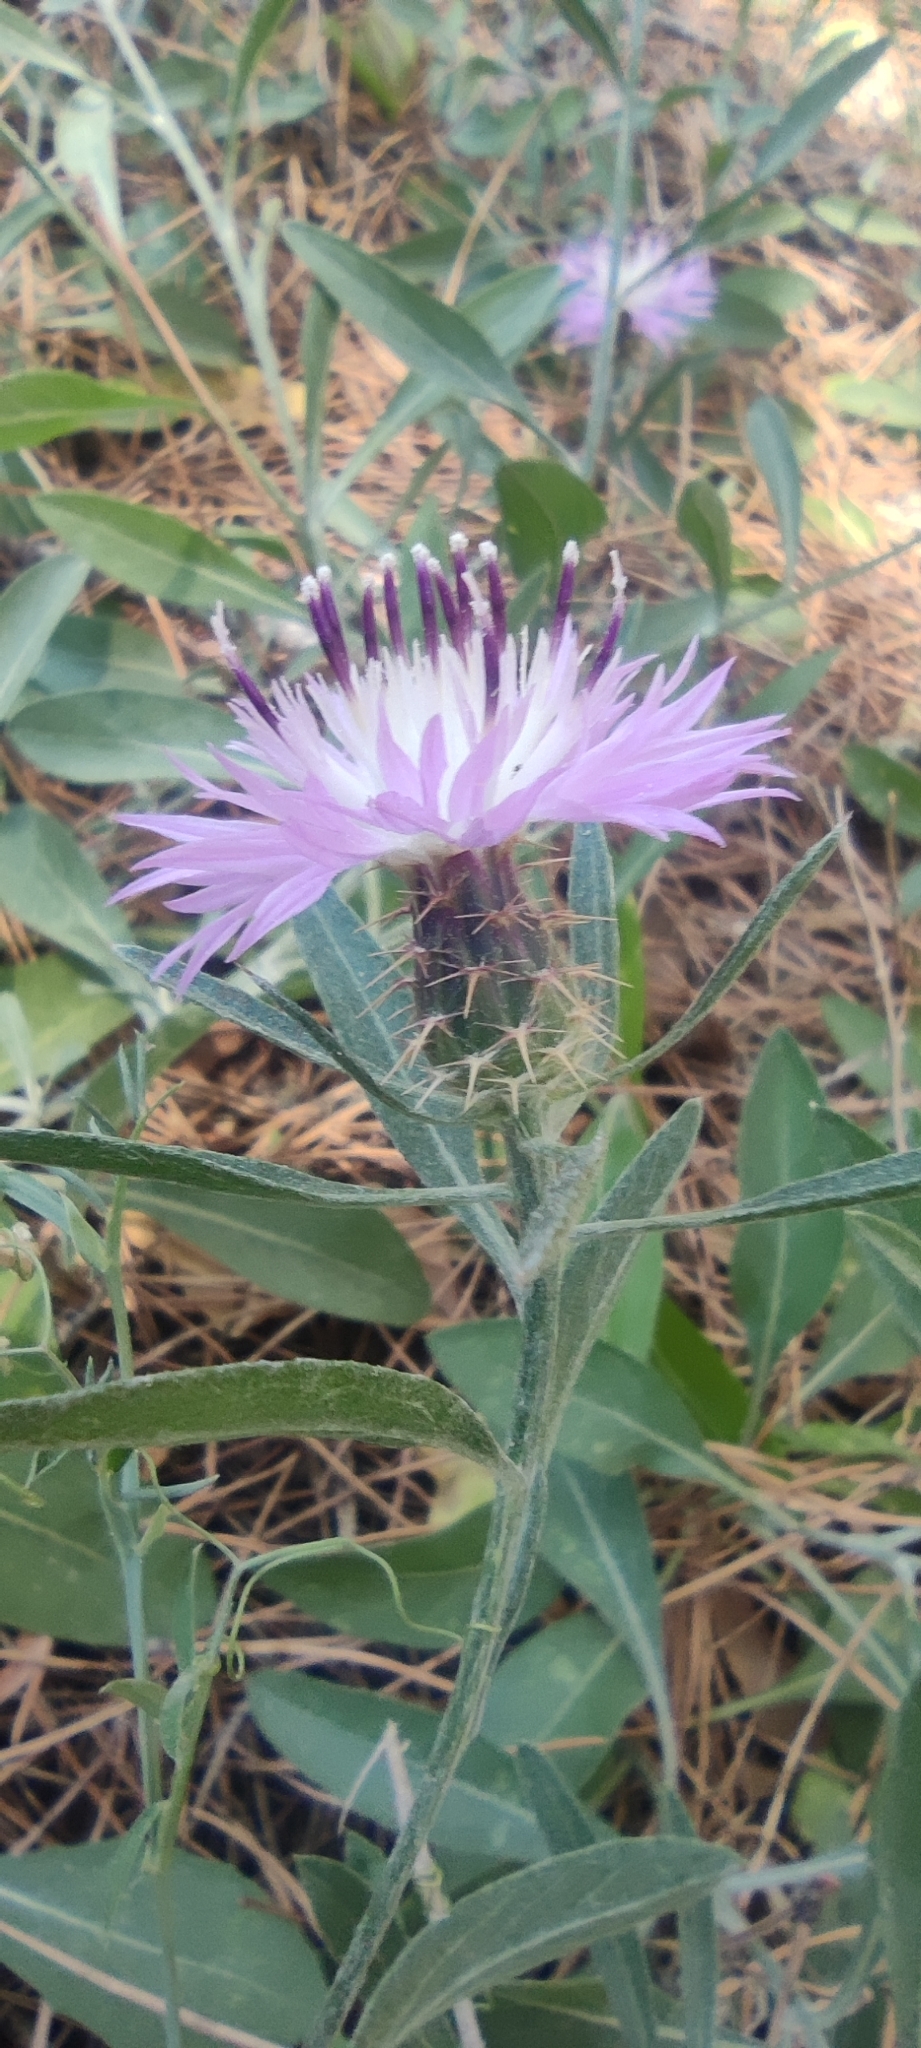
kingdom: Plantae
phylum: Tracheophyta
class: Magnoliopsida
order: Asterales
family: Asteraceae
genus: Centaurea
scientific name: Centaurea aspera
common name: Rough star-thistle
